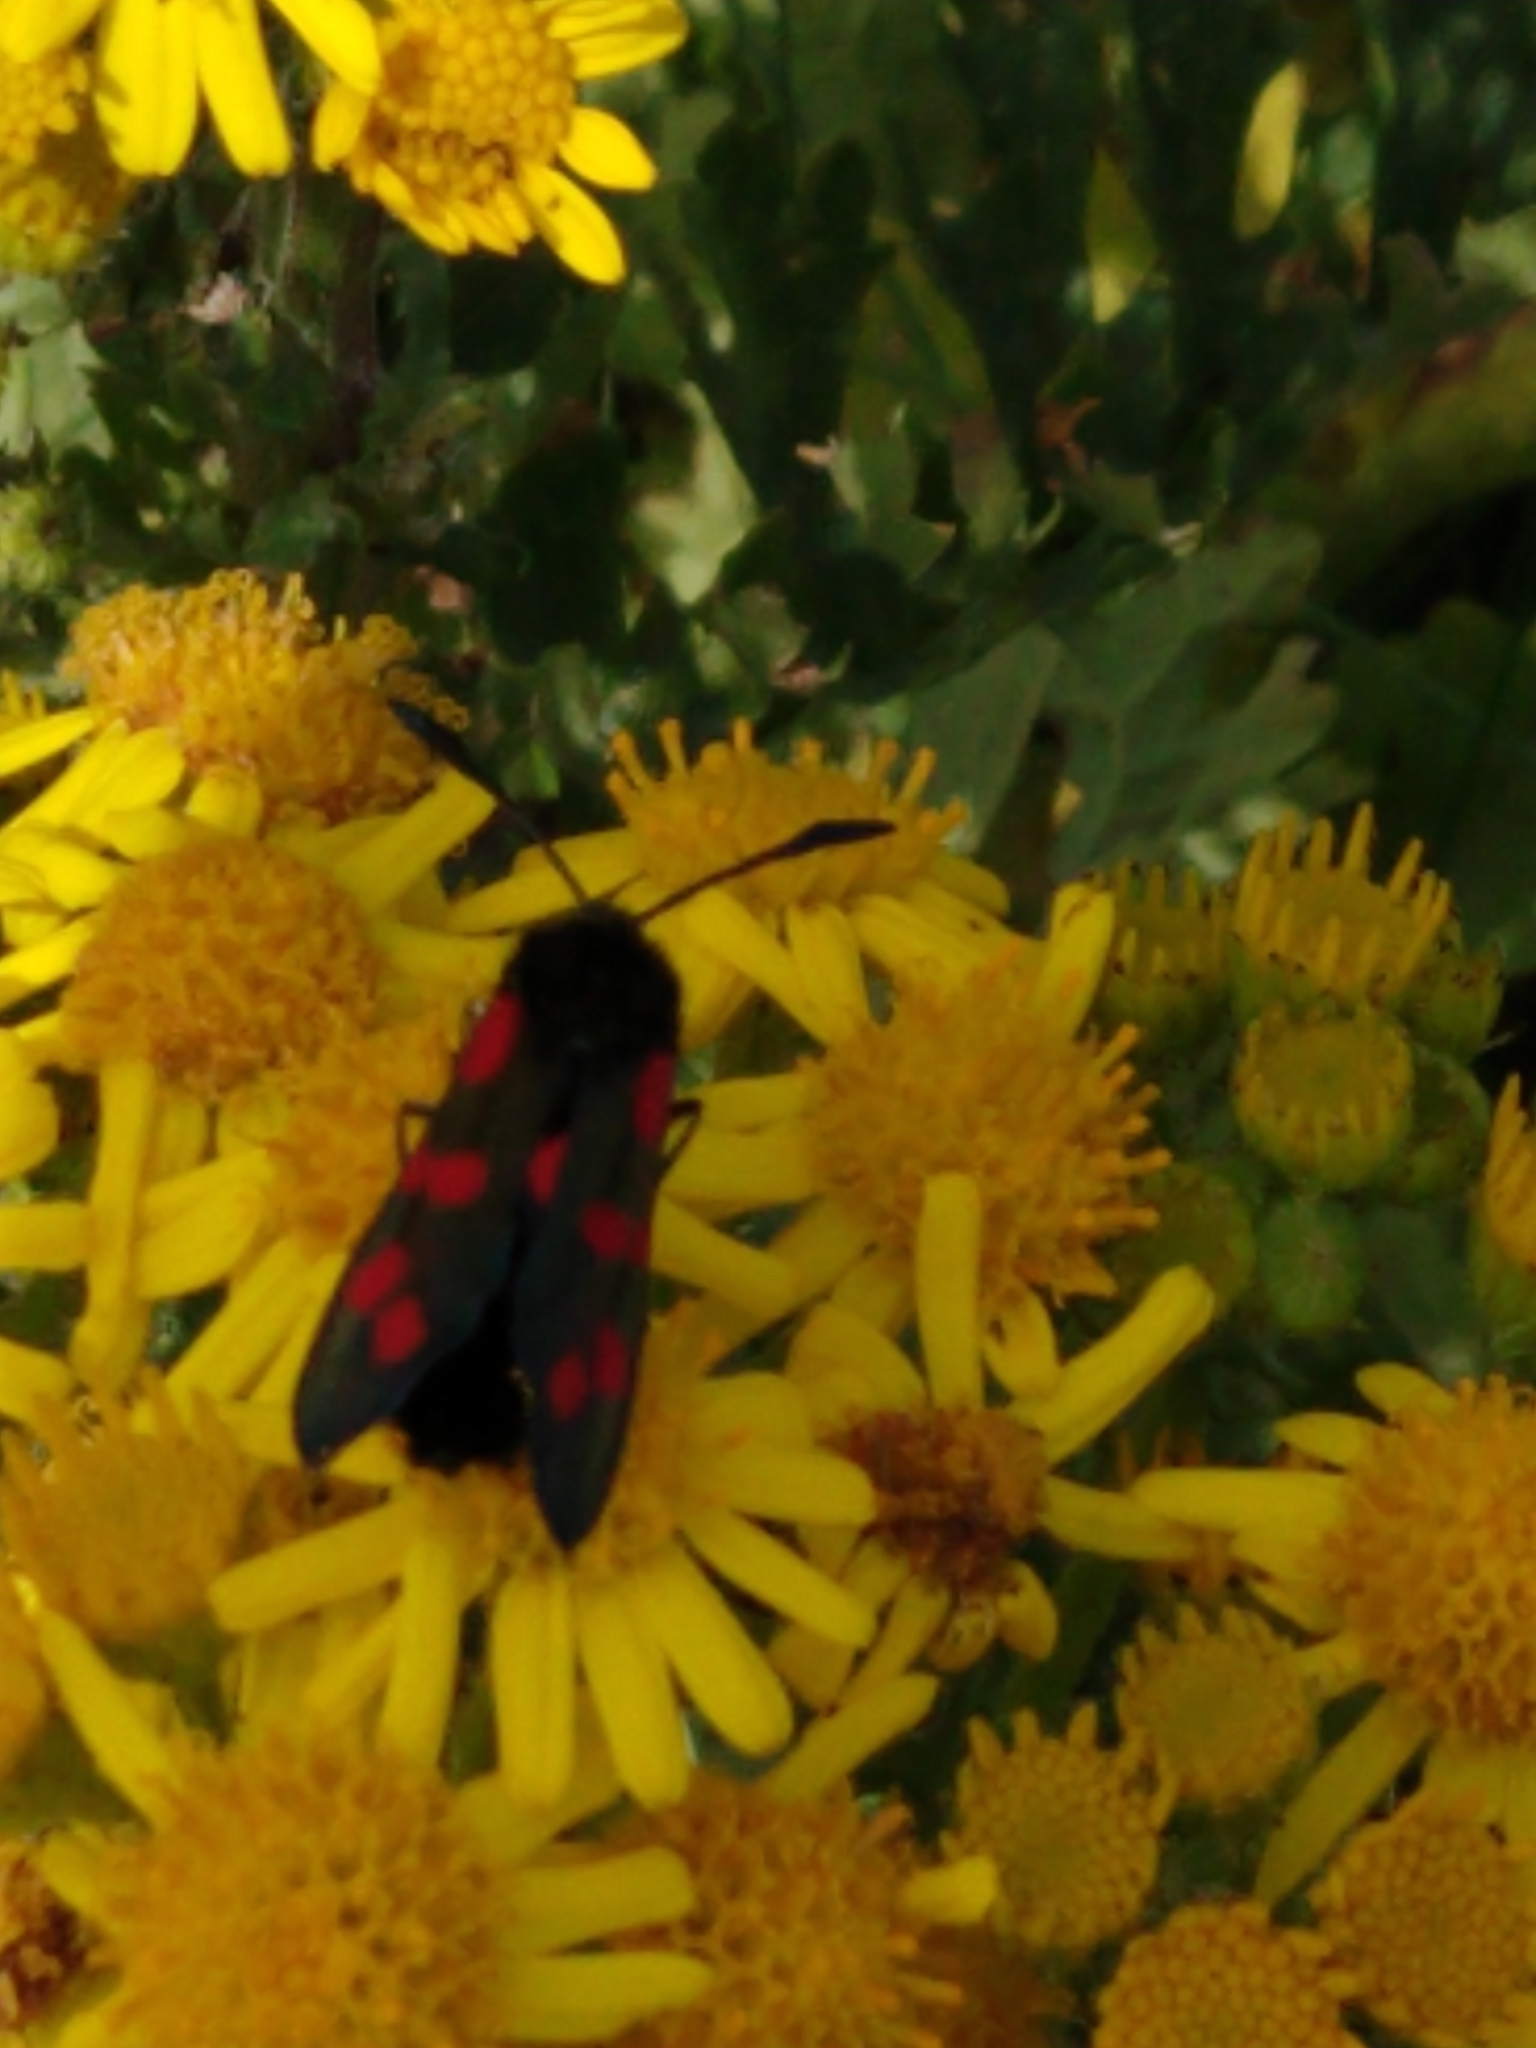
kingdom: Animalia
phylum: Arthropoda
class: Insecta
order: Lepidoptera
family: Zygaenidae
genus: Zygaena
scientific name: Zygaena filipendulae
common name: Six-spot burnet
